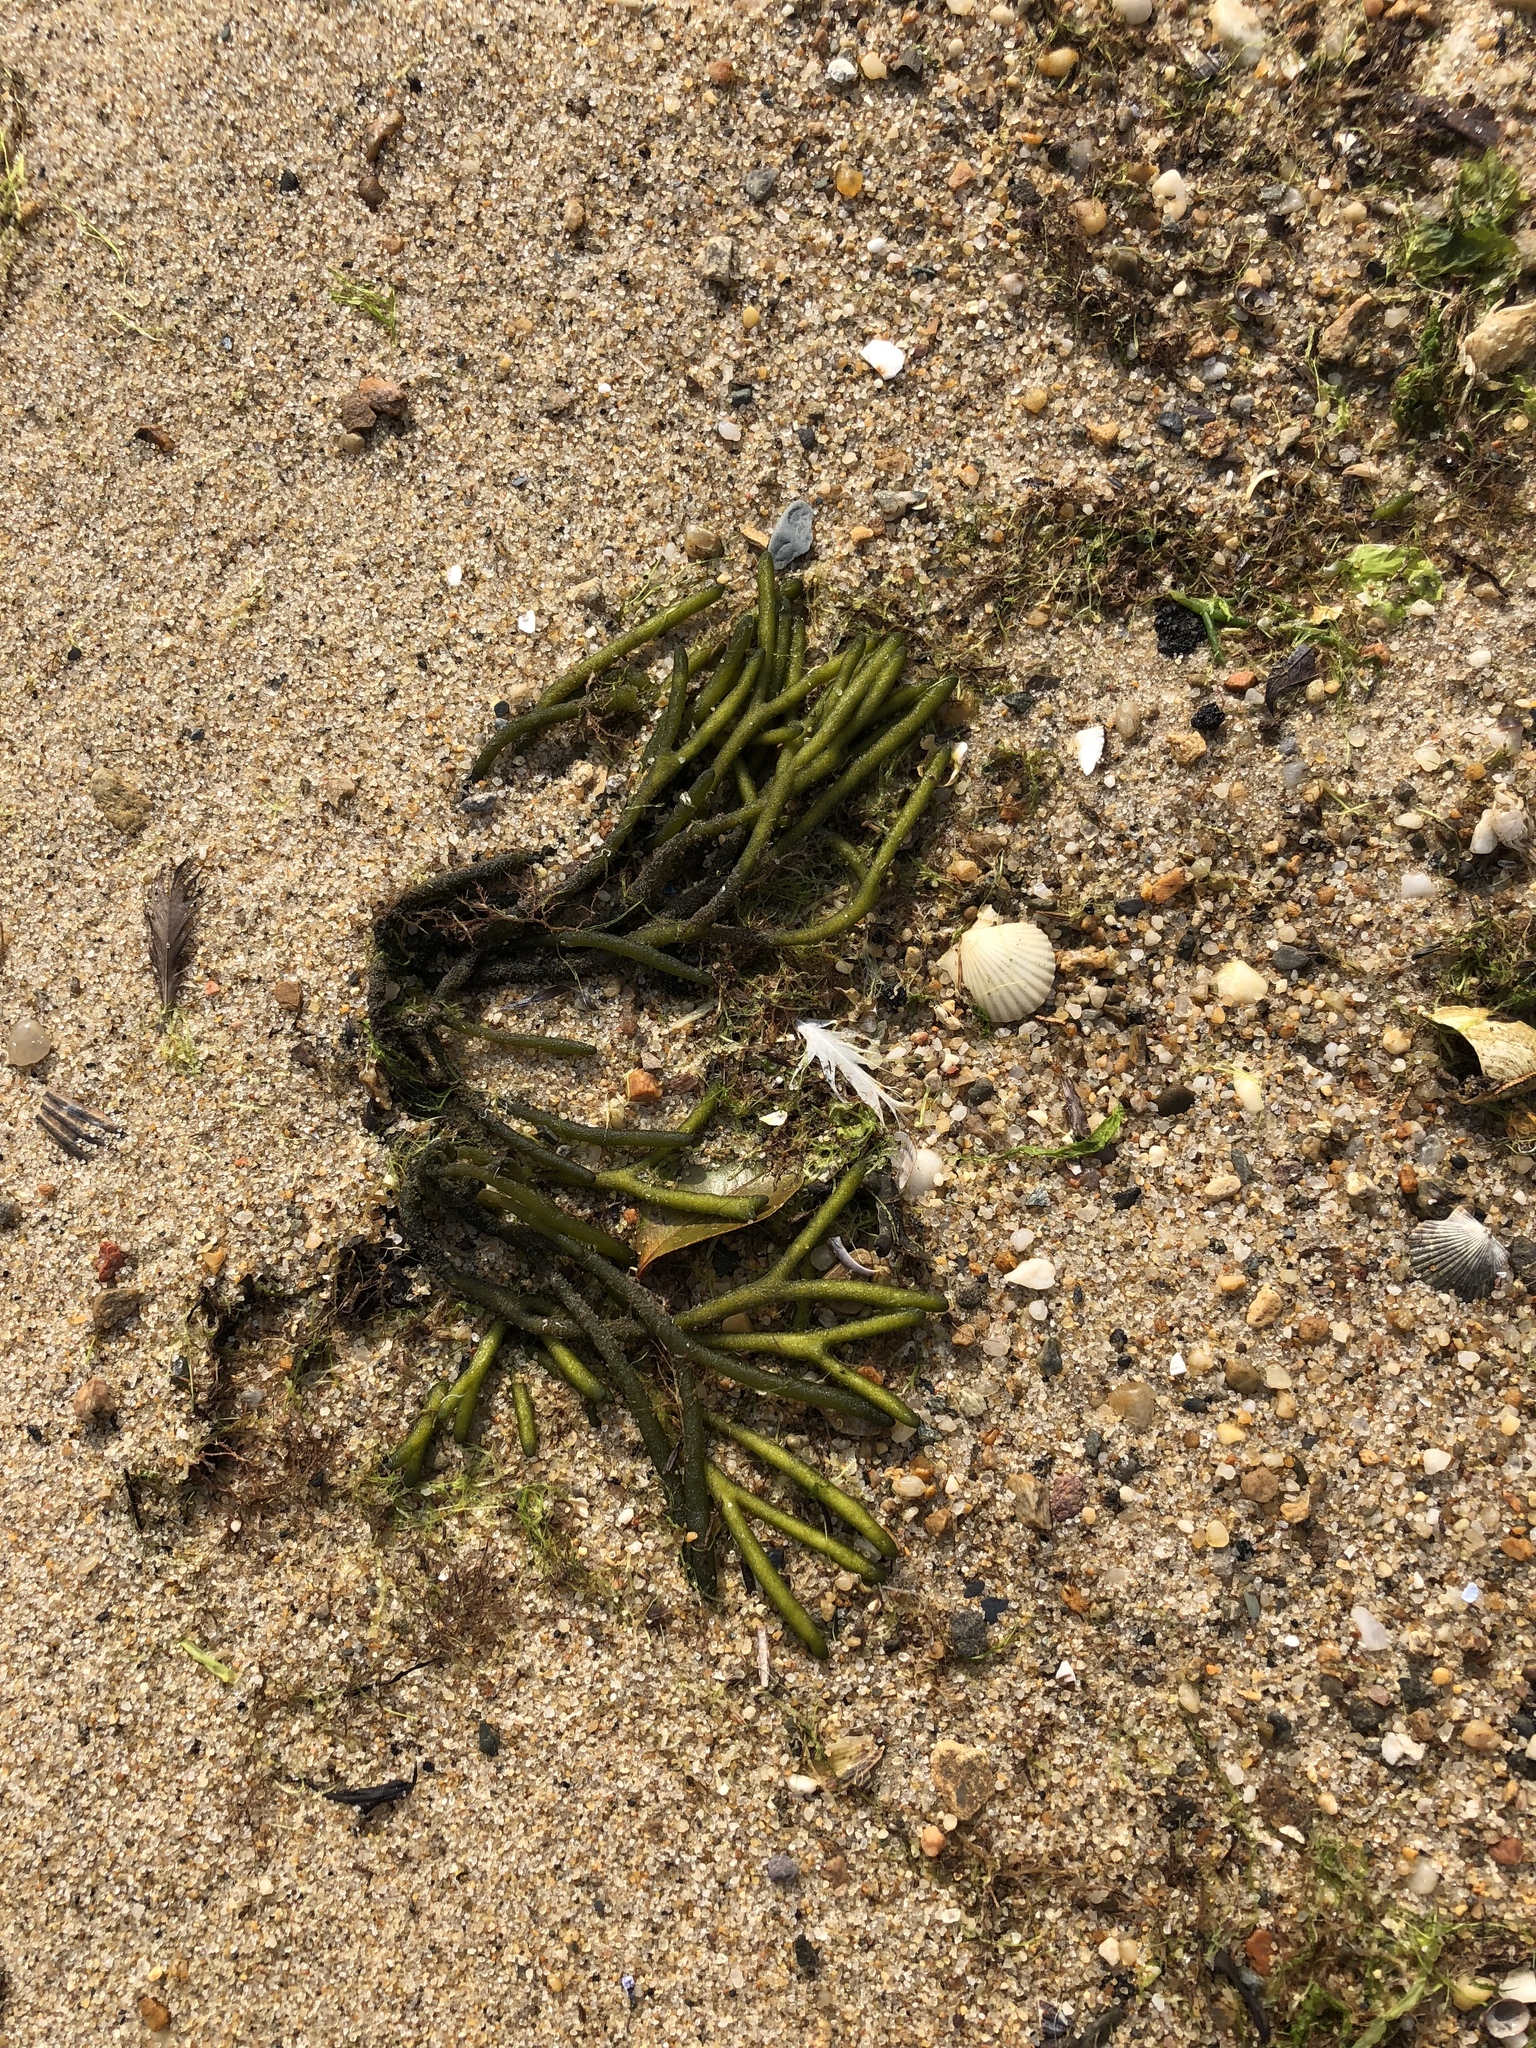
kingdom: Plantae
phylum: Chlorophyta
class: Ulvophyceae
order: Bryopsidales
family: Codiaceae
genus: Codium
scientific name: Codium fragile
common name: Dead man's fingers
